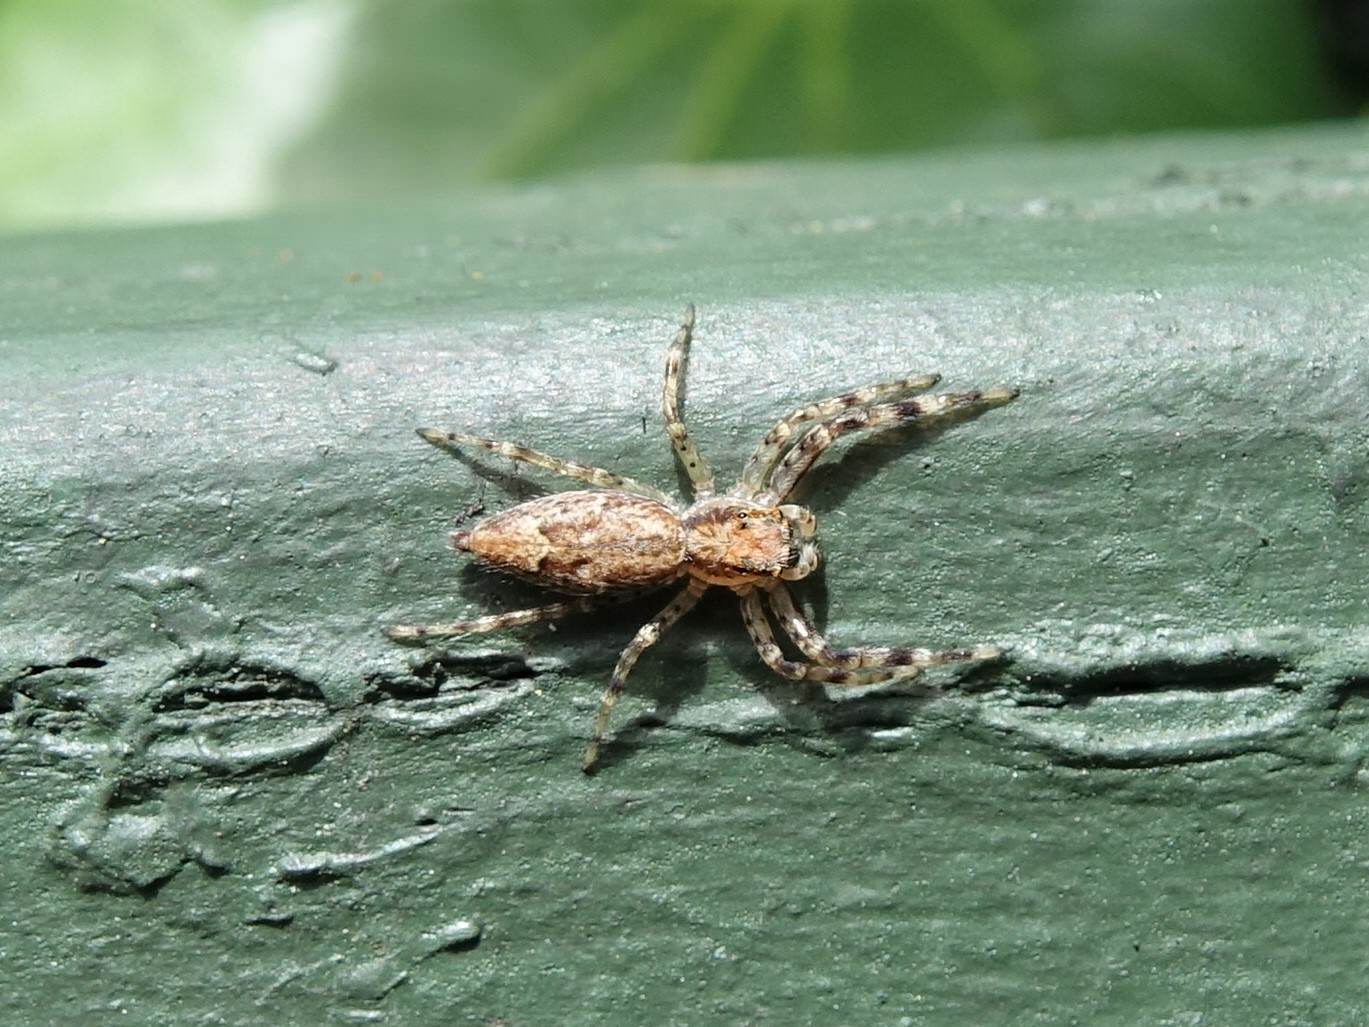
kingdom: Animalia
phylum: Arthropoda
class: Arachnida
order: Araneae
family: Salticidae
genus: Helpis
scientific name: Helpis minitabunda
